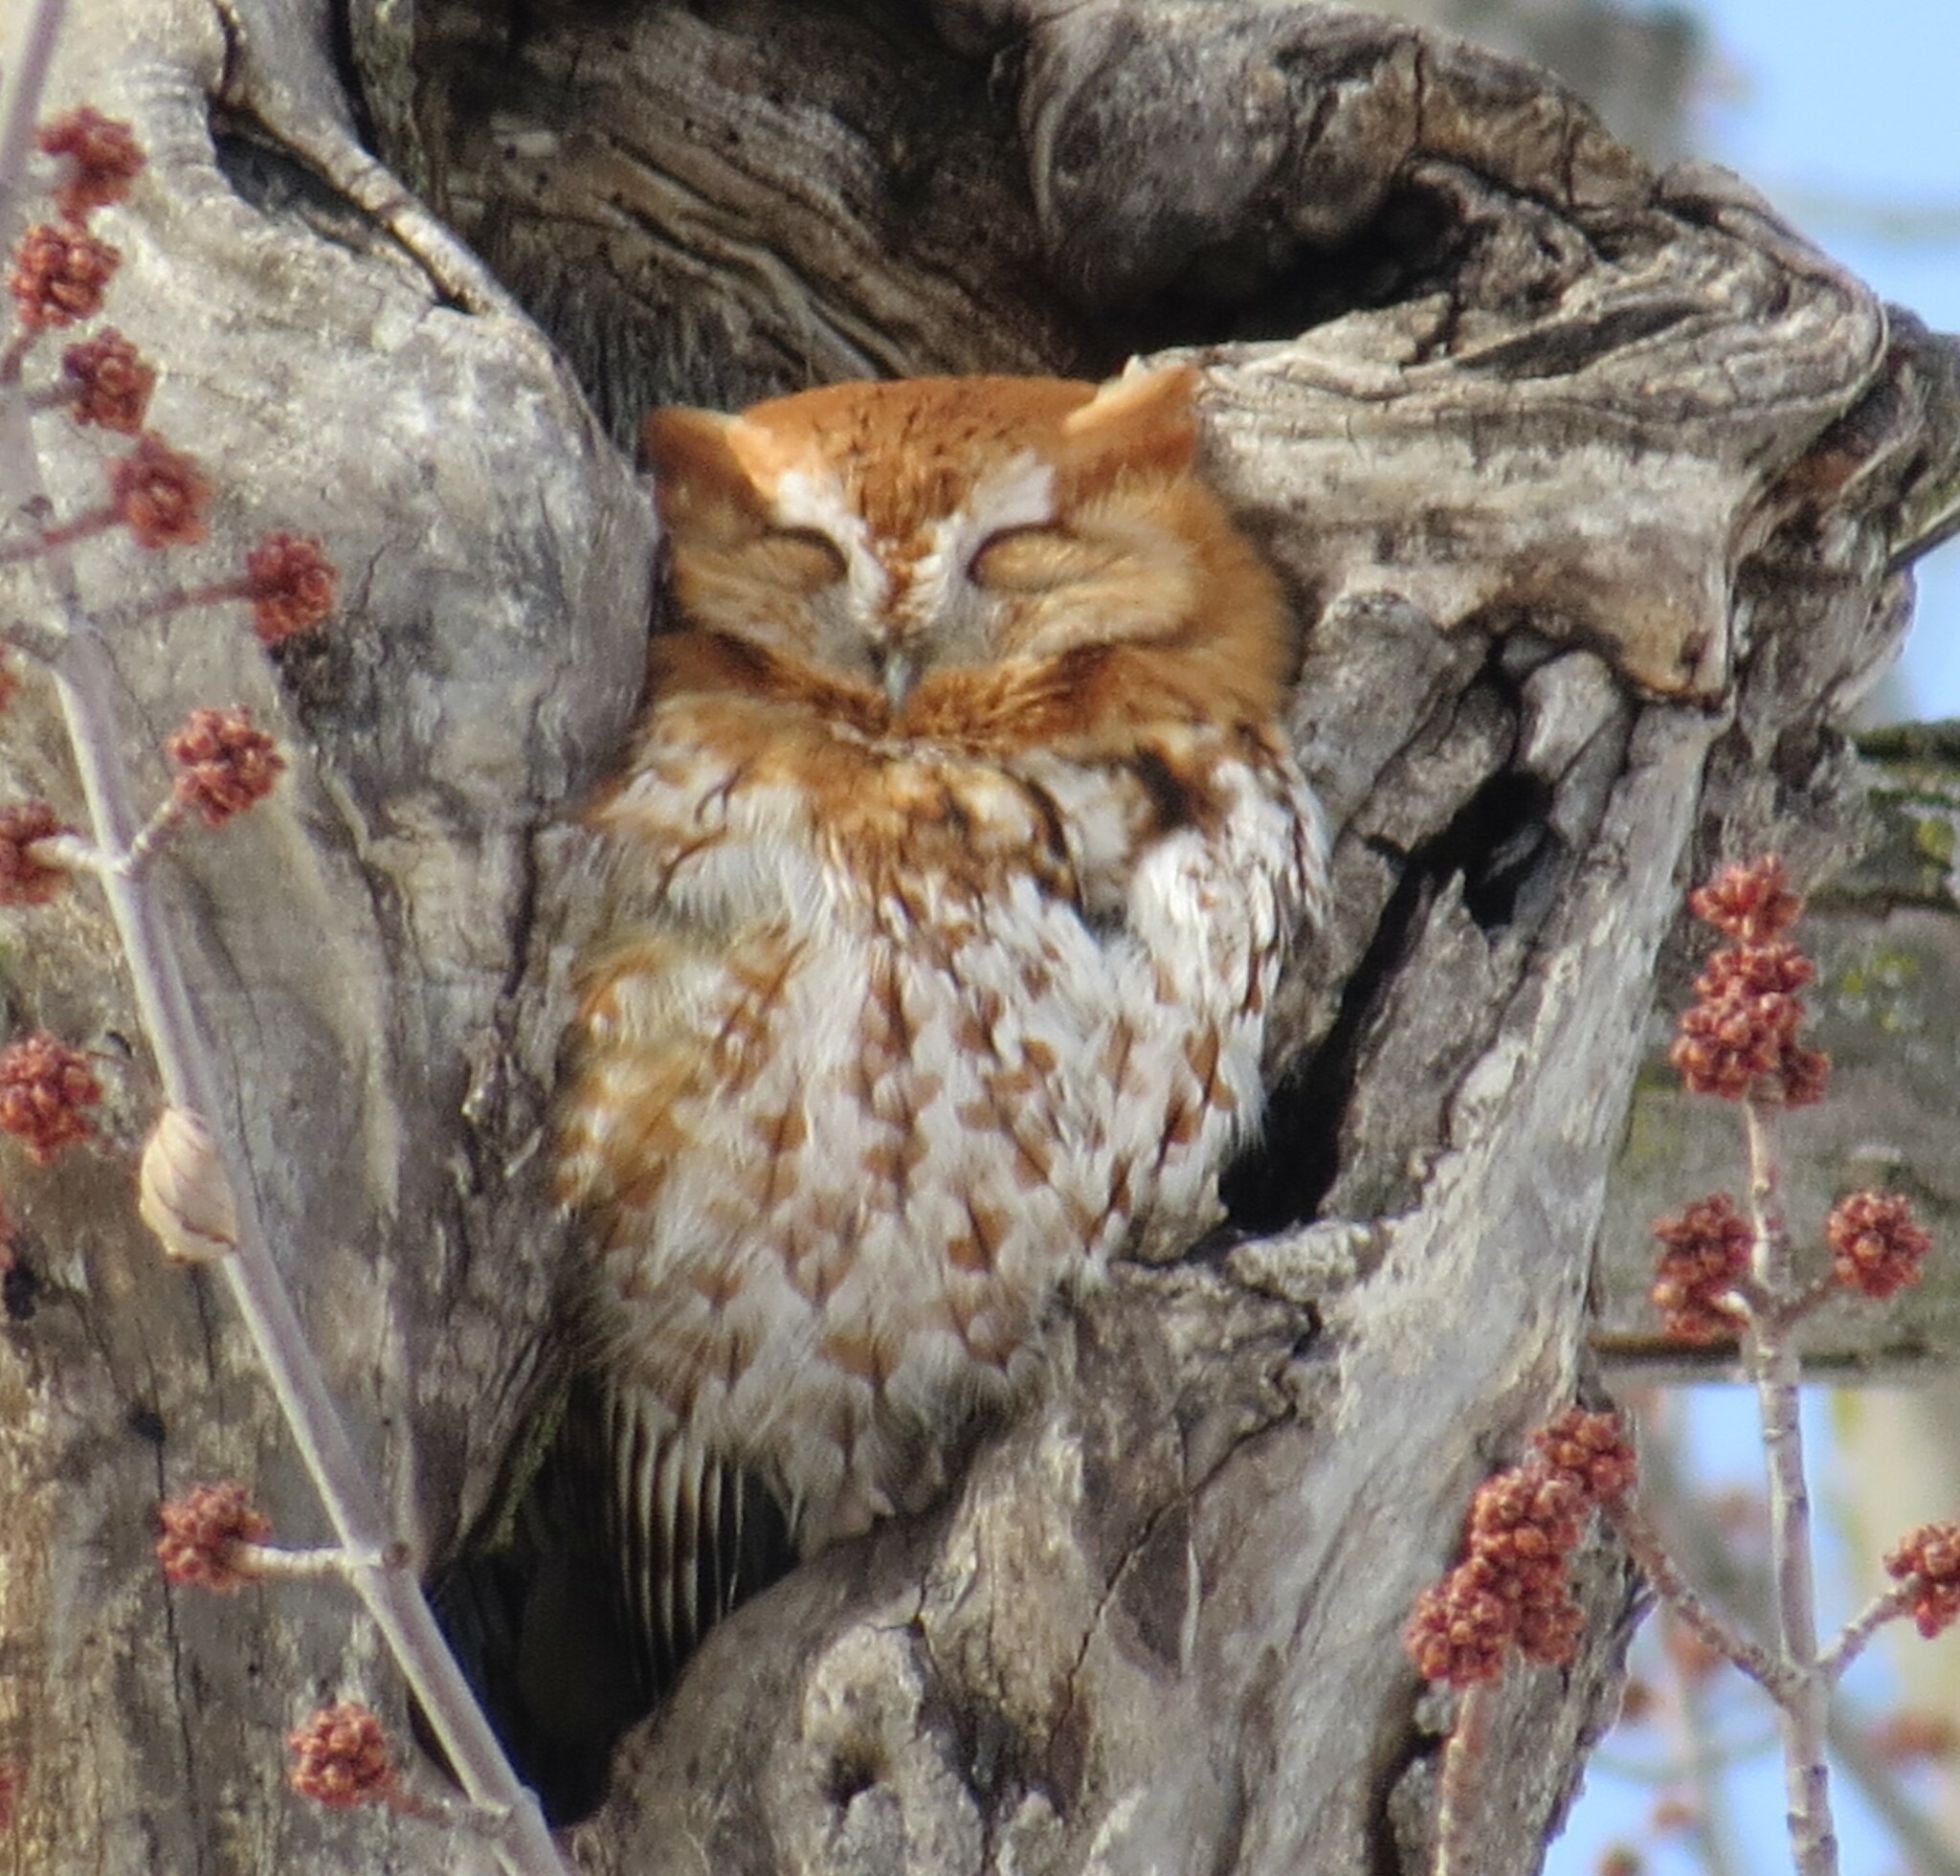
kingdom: Animalia
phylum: Chordata
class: Aves
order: Strigiformes
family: Strigidae
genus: Megascops
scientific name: Megascops asio
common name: Eastern screech-owl
